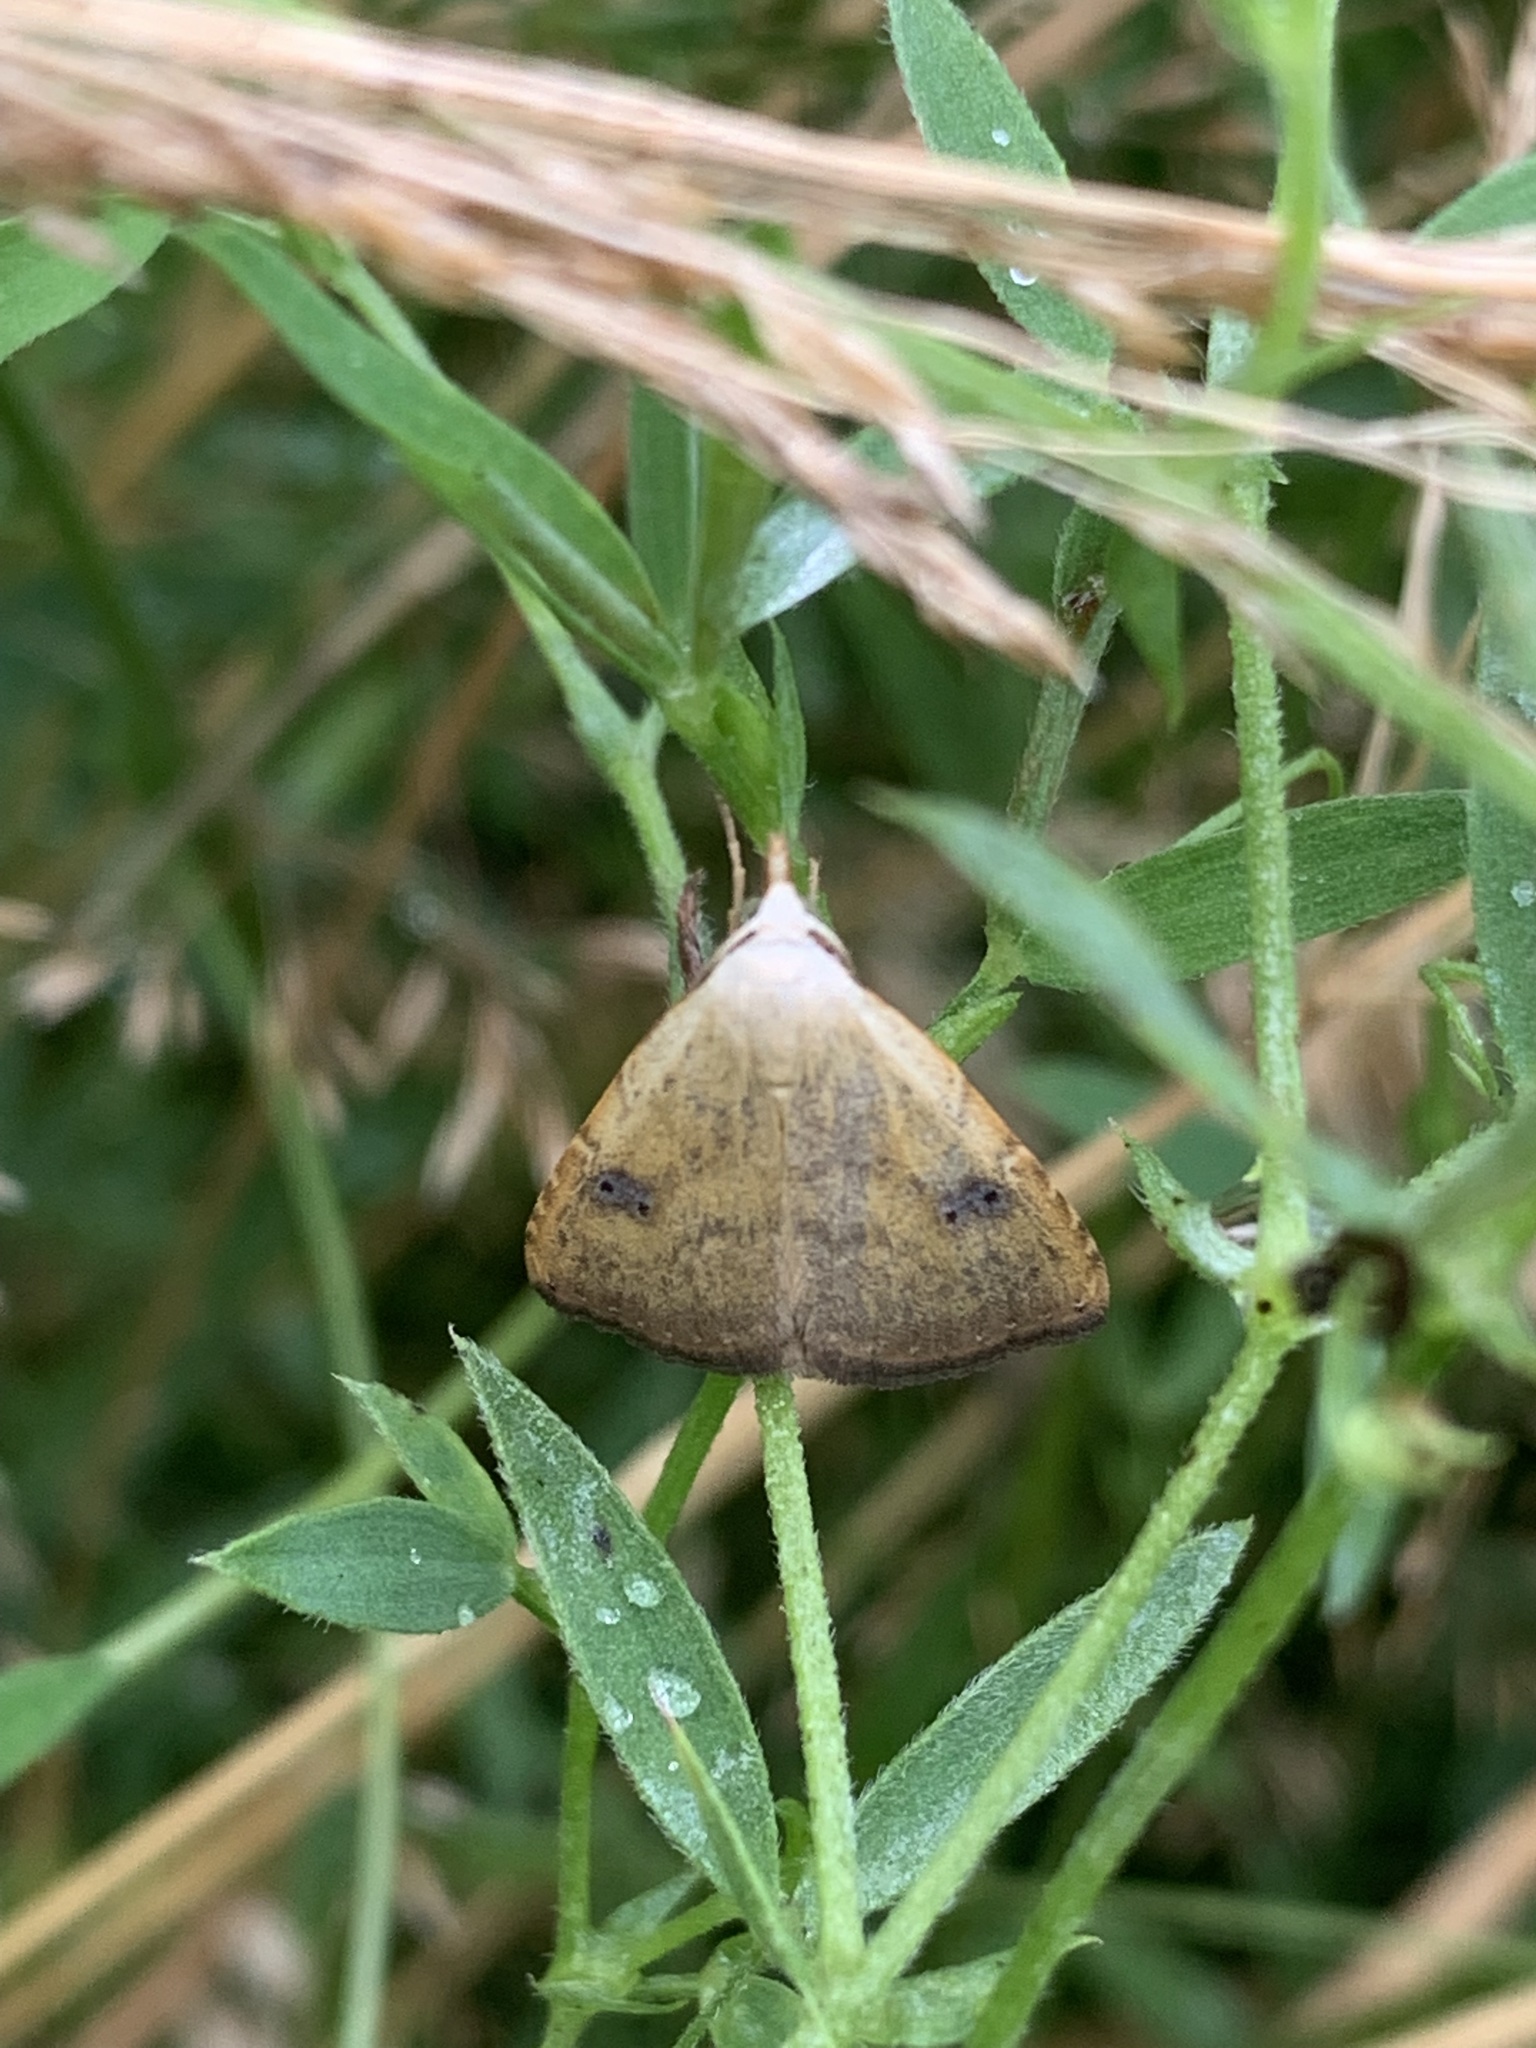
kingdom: Animalia
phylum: Arthropoda
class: Insecta
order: Lepidoptera
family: Erebidae
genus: Rivula
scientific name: Rivula sericealis
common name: Straw dot
